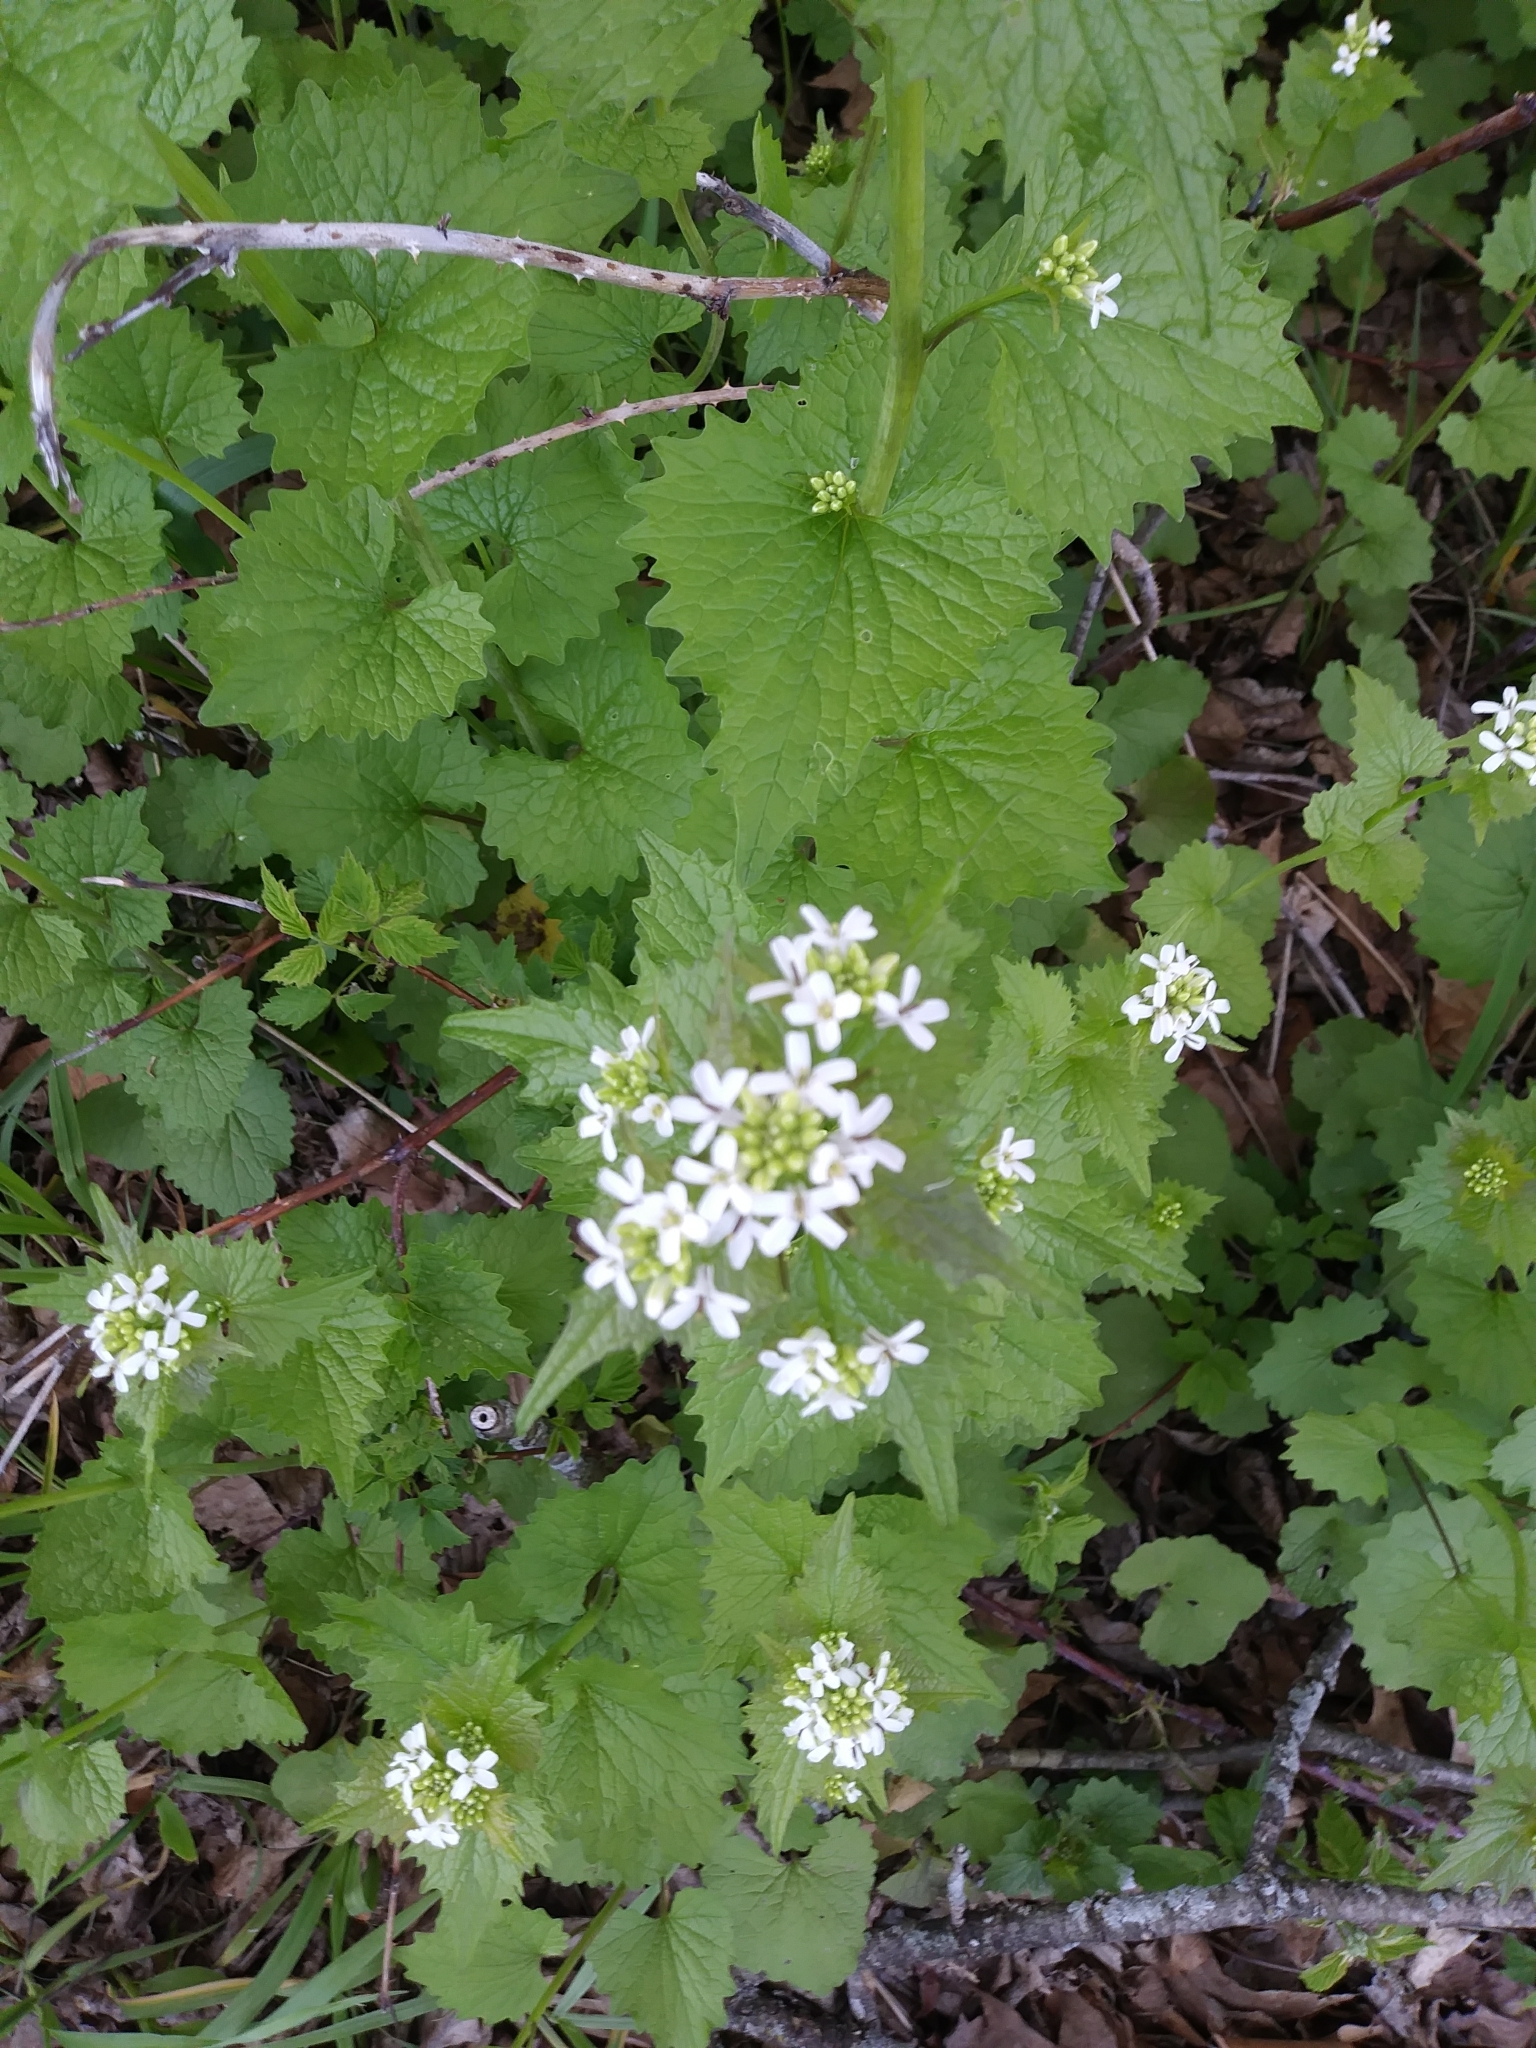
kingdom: Plantae
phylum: Tracheophyta
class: Magnoliopsida
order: Brassicales
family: Brassicaceae
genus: Alliaria
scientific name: Alliaria petiolata
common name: Garlic mustard
